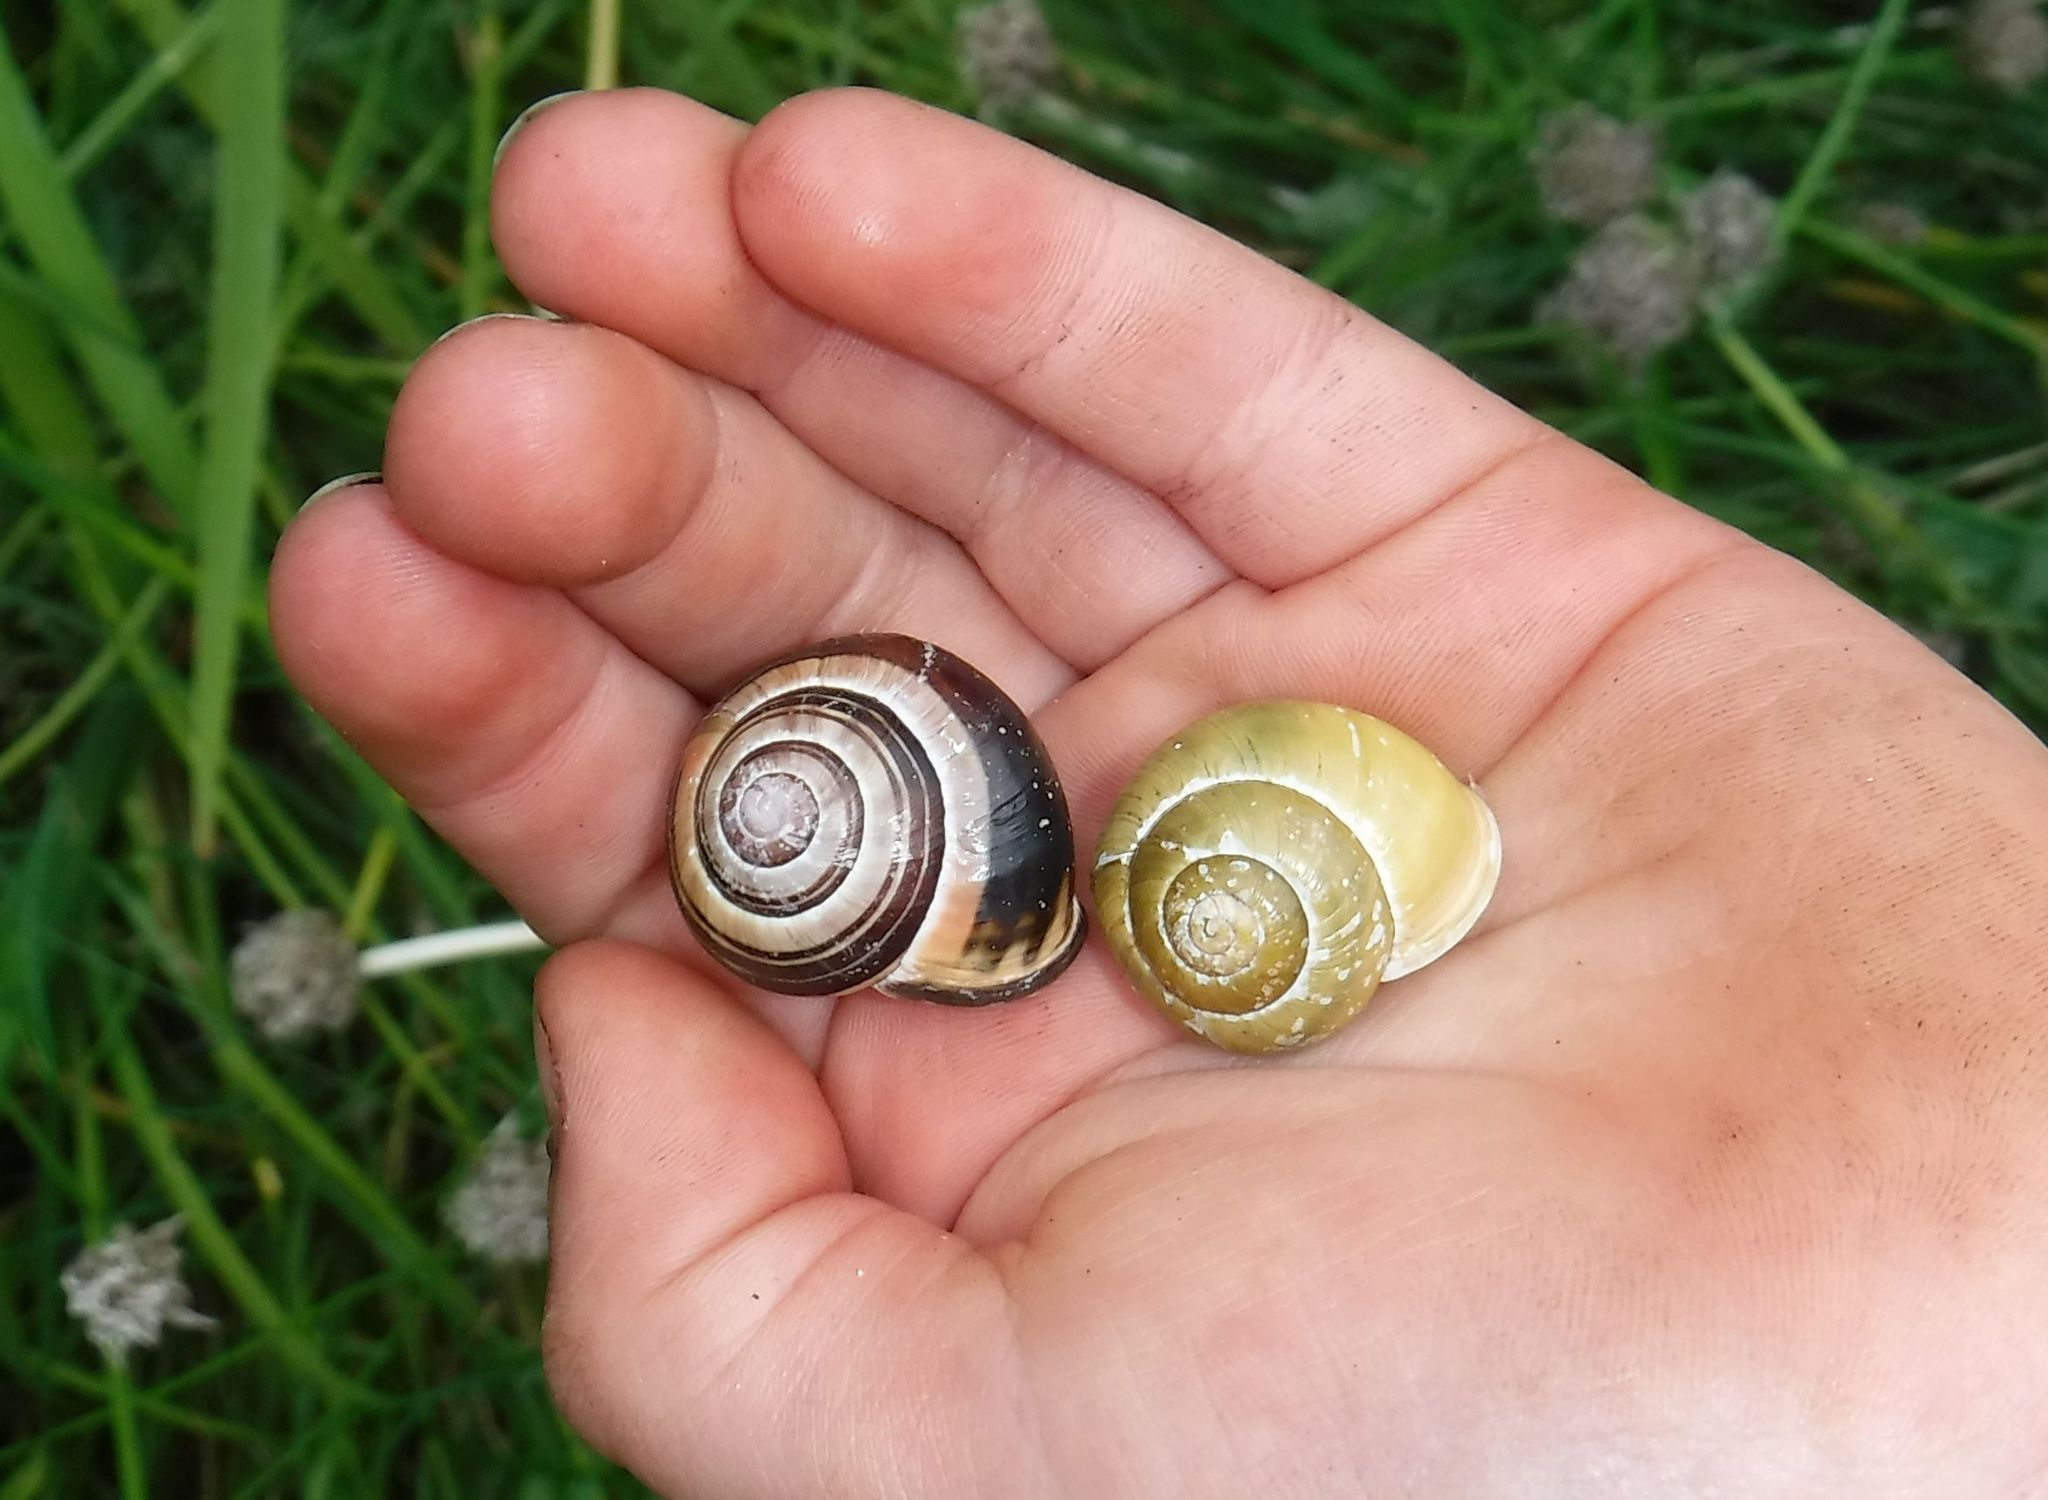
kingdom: Animalia
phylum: Mollusca
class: Gastropoda
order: Stylommatophora
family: Helicidae
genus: Cepaea
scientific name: Cepaea nemoralis
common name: Grovesnail
